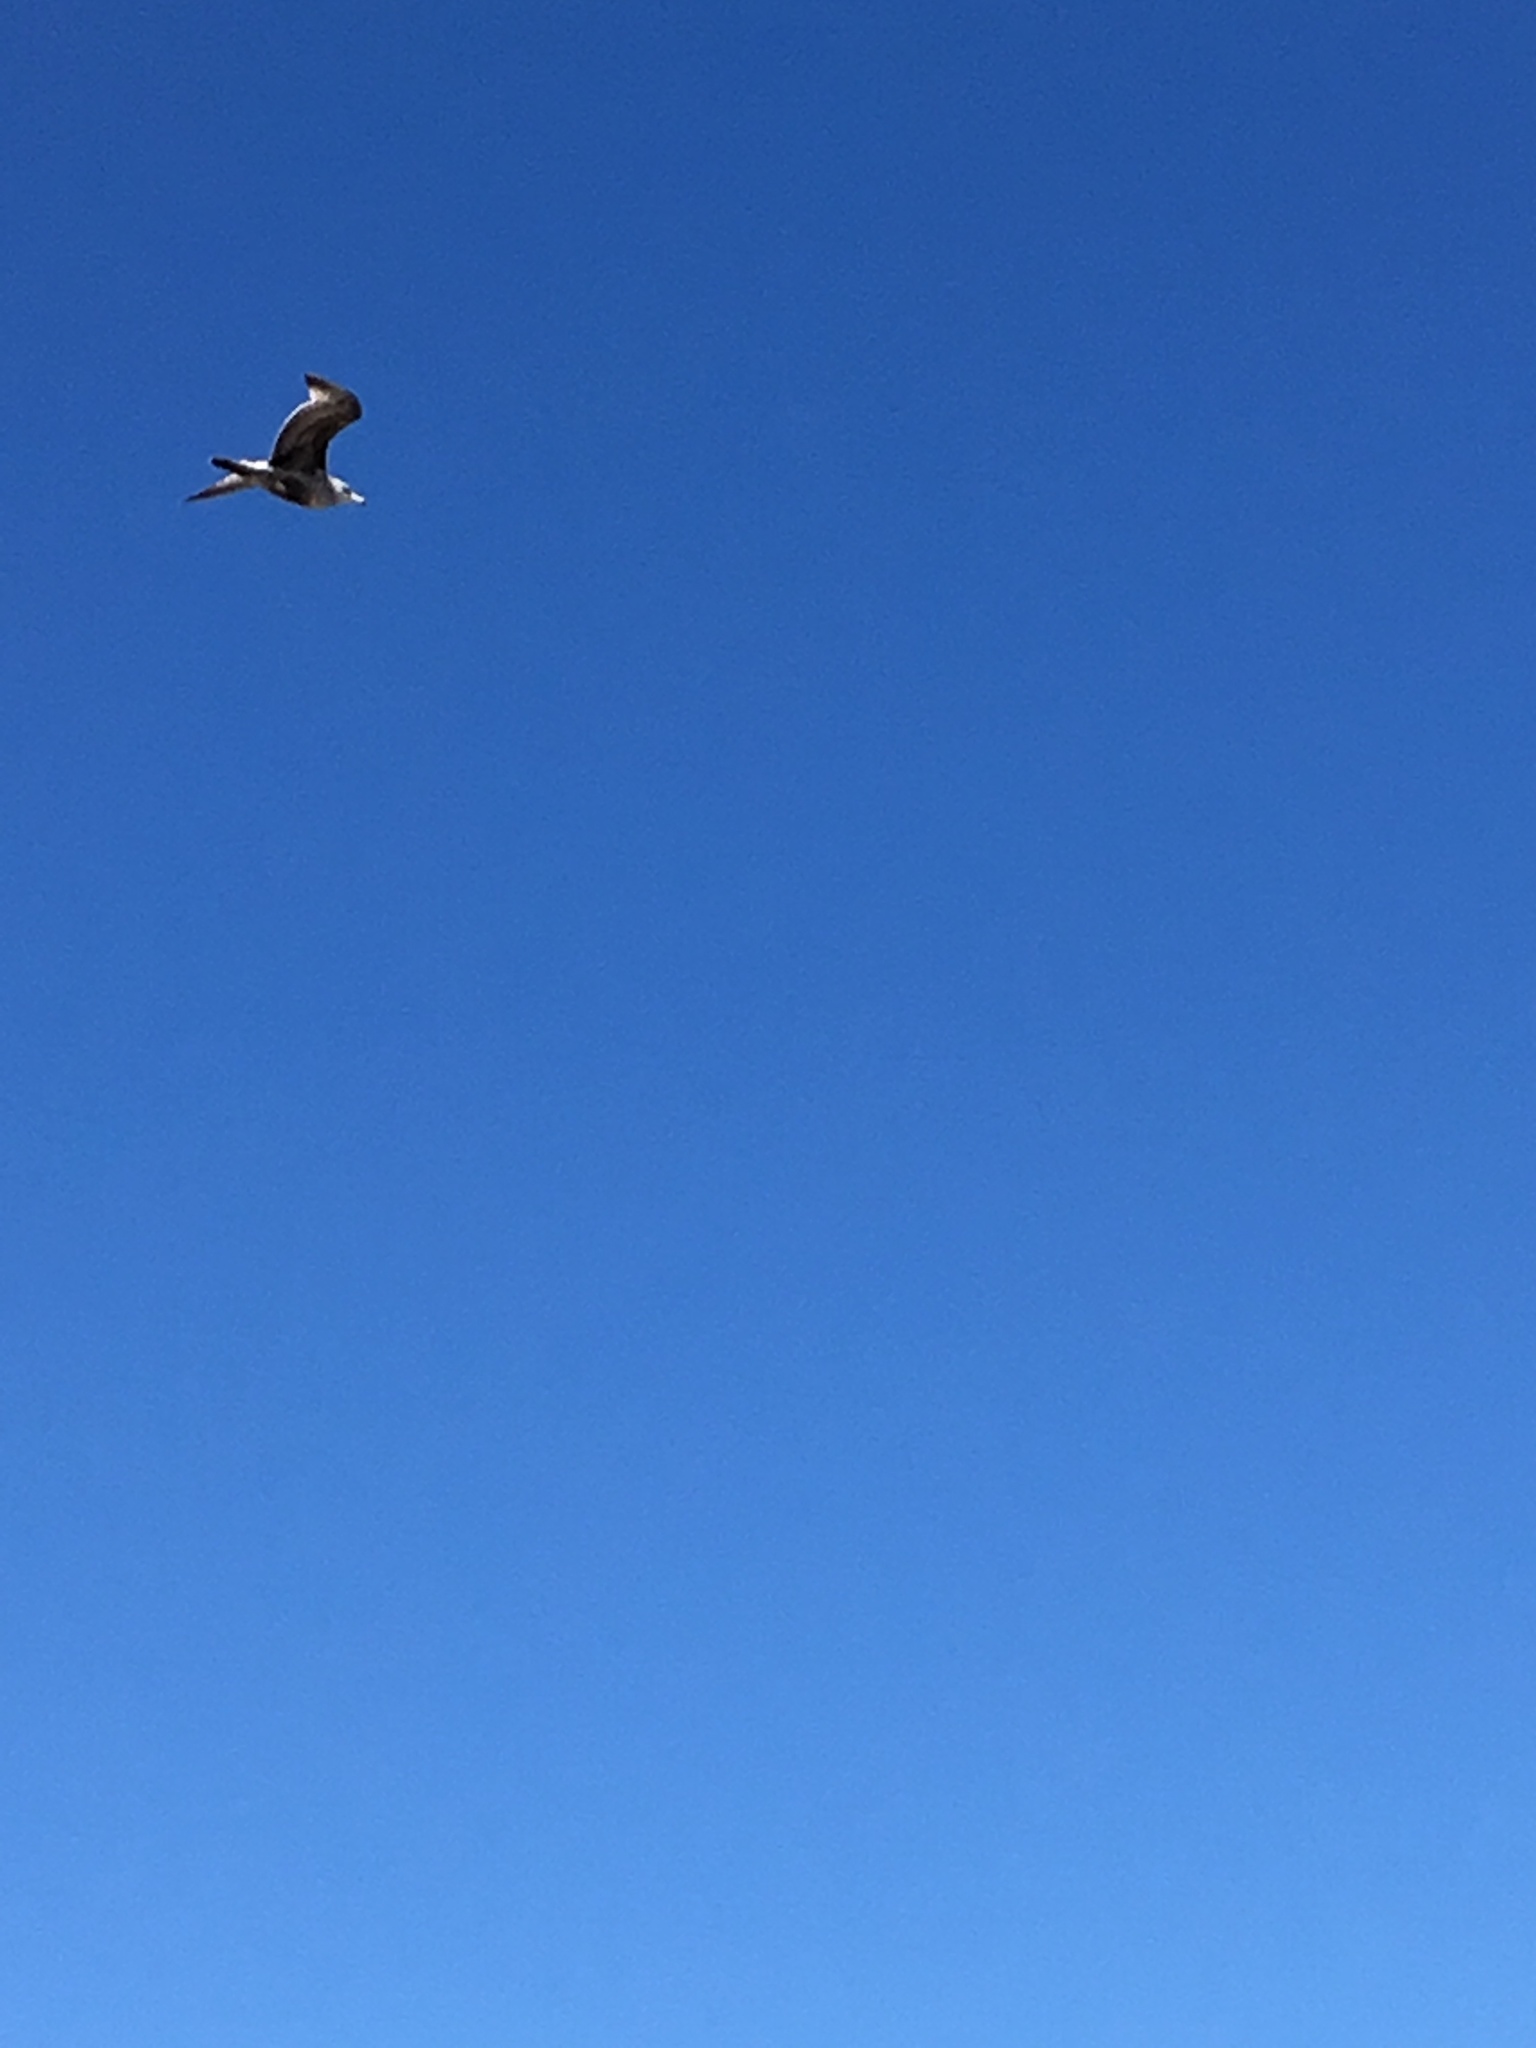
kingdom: Animalia
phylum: Chordata
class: Aves
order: Charadriiformes
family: Laridae
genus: Larus
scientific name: Larus argentatus
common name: Herring gull
